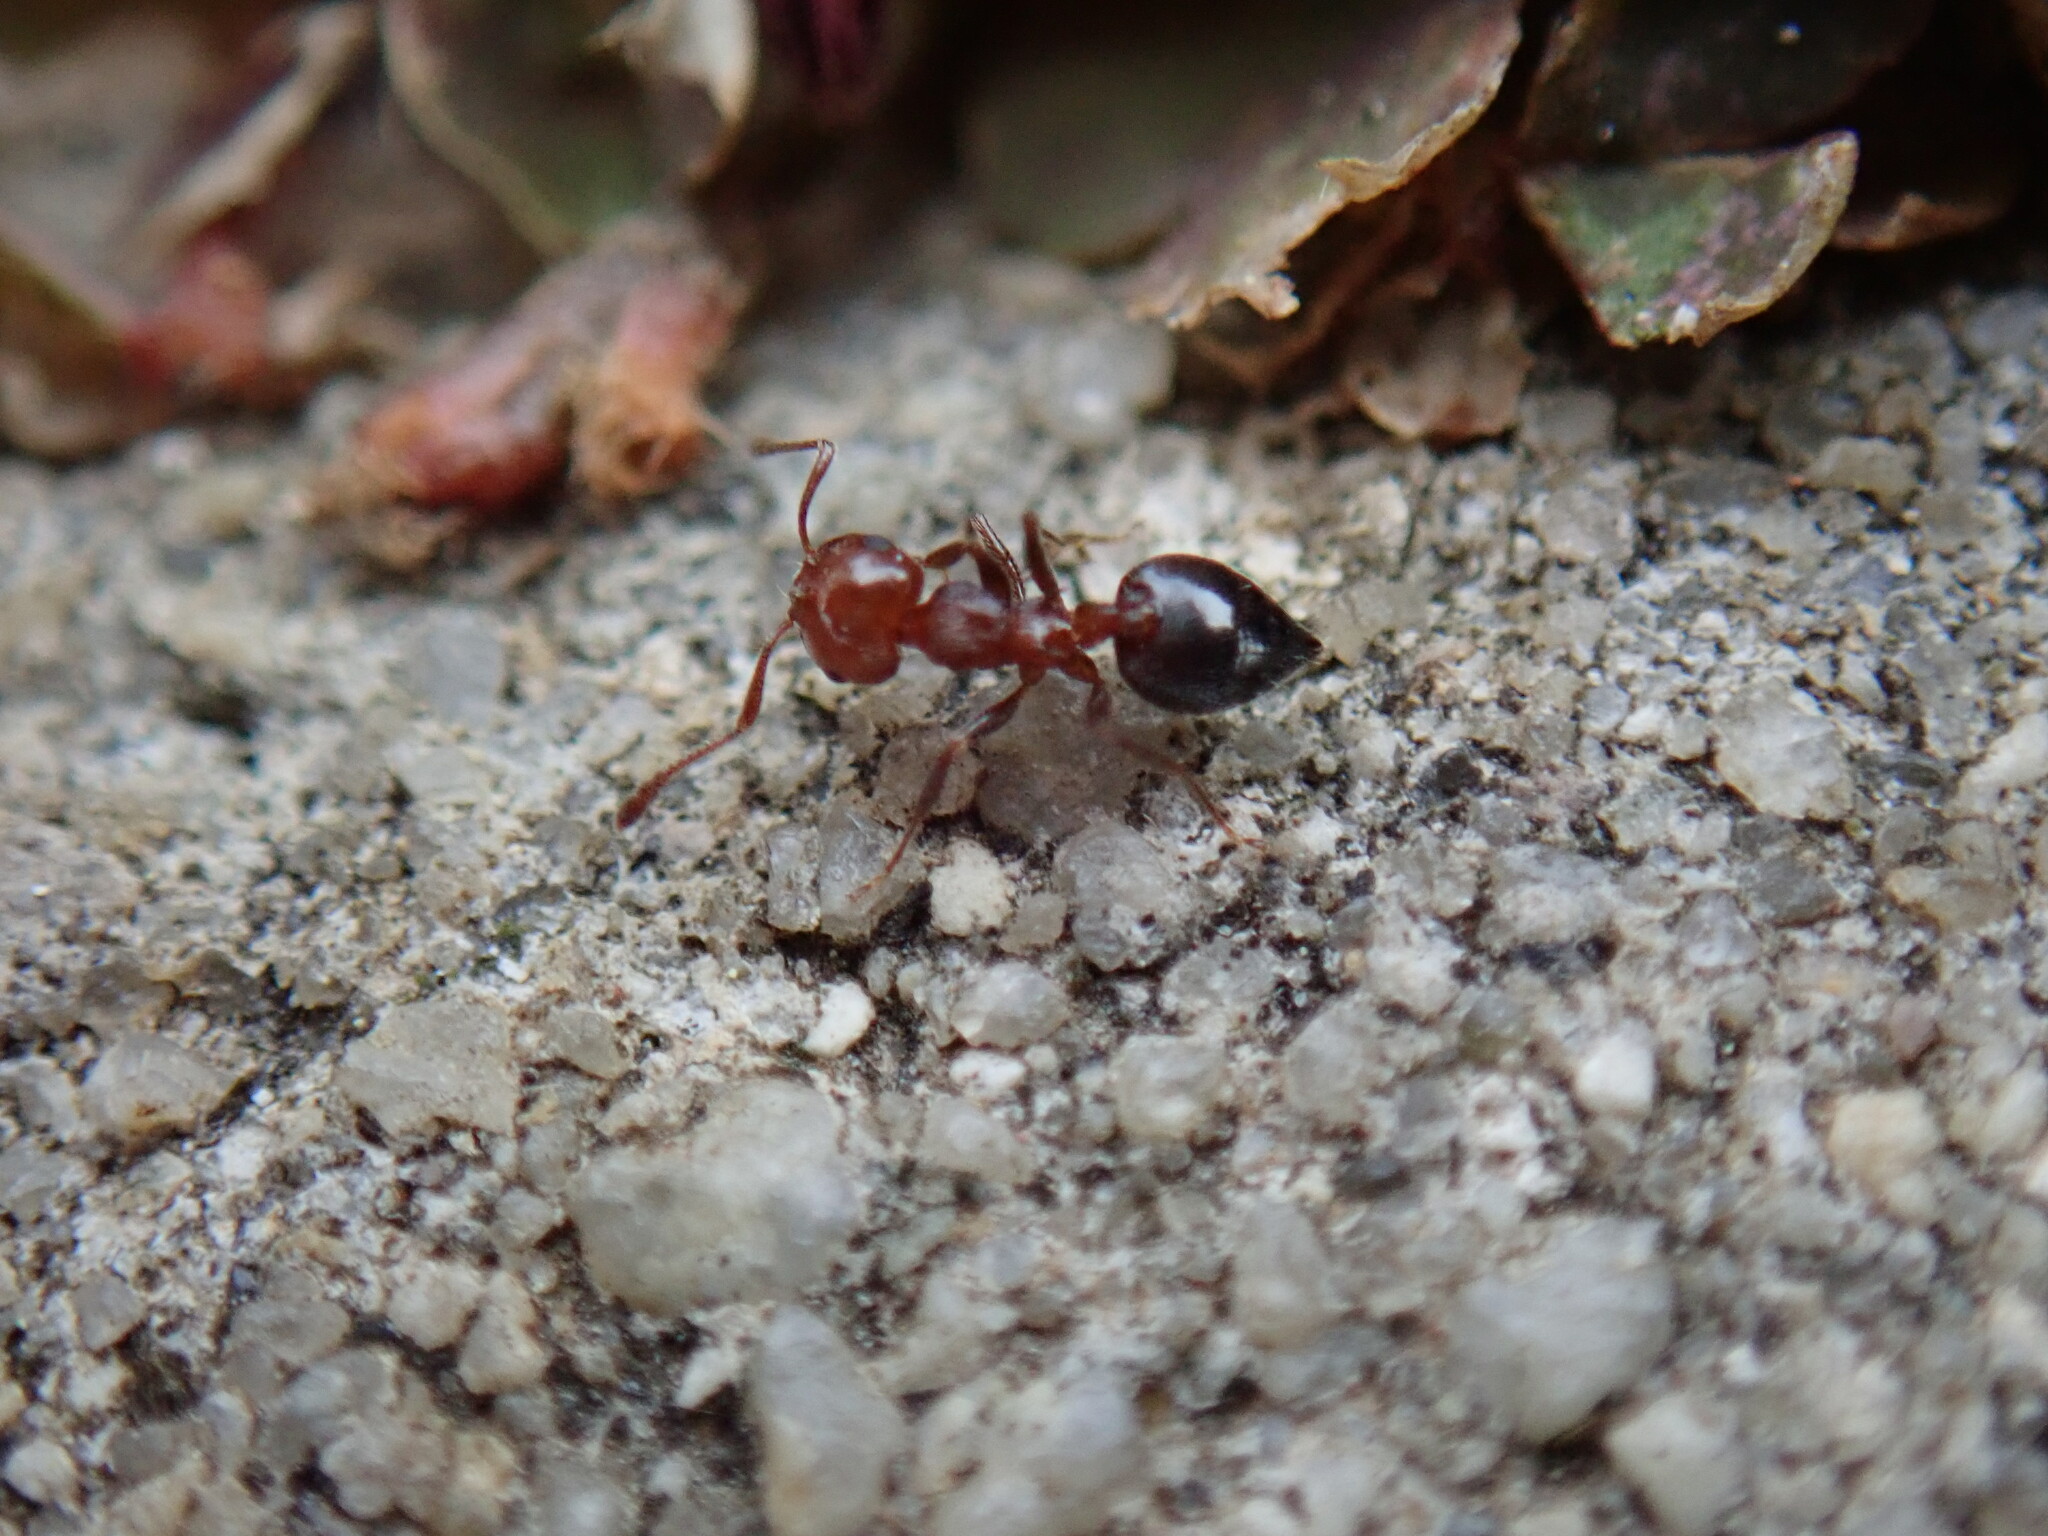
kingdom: Animalia
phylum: Arthropoda
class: Insecta
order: Hymenoptera
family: Formicidae
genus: Crematogaster
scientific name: Crematogaster schmidti
